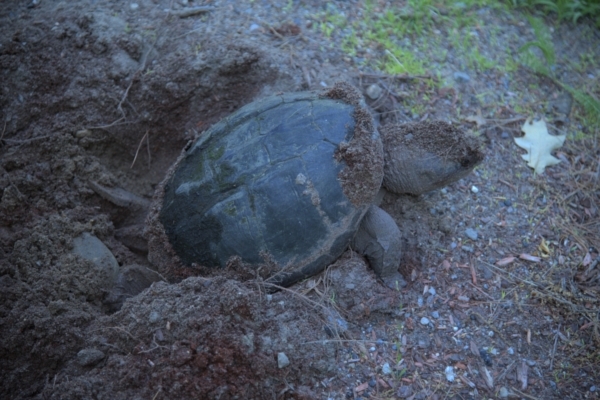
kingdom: Animalia
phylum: Chordata
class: Testudines
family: Chelydridae
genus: Chelydra
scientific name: Chelydra serpentina
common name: Common snapping turtle
